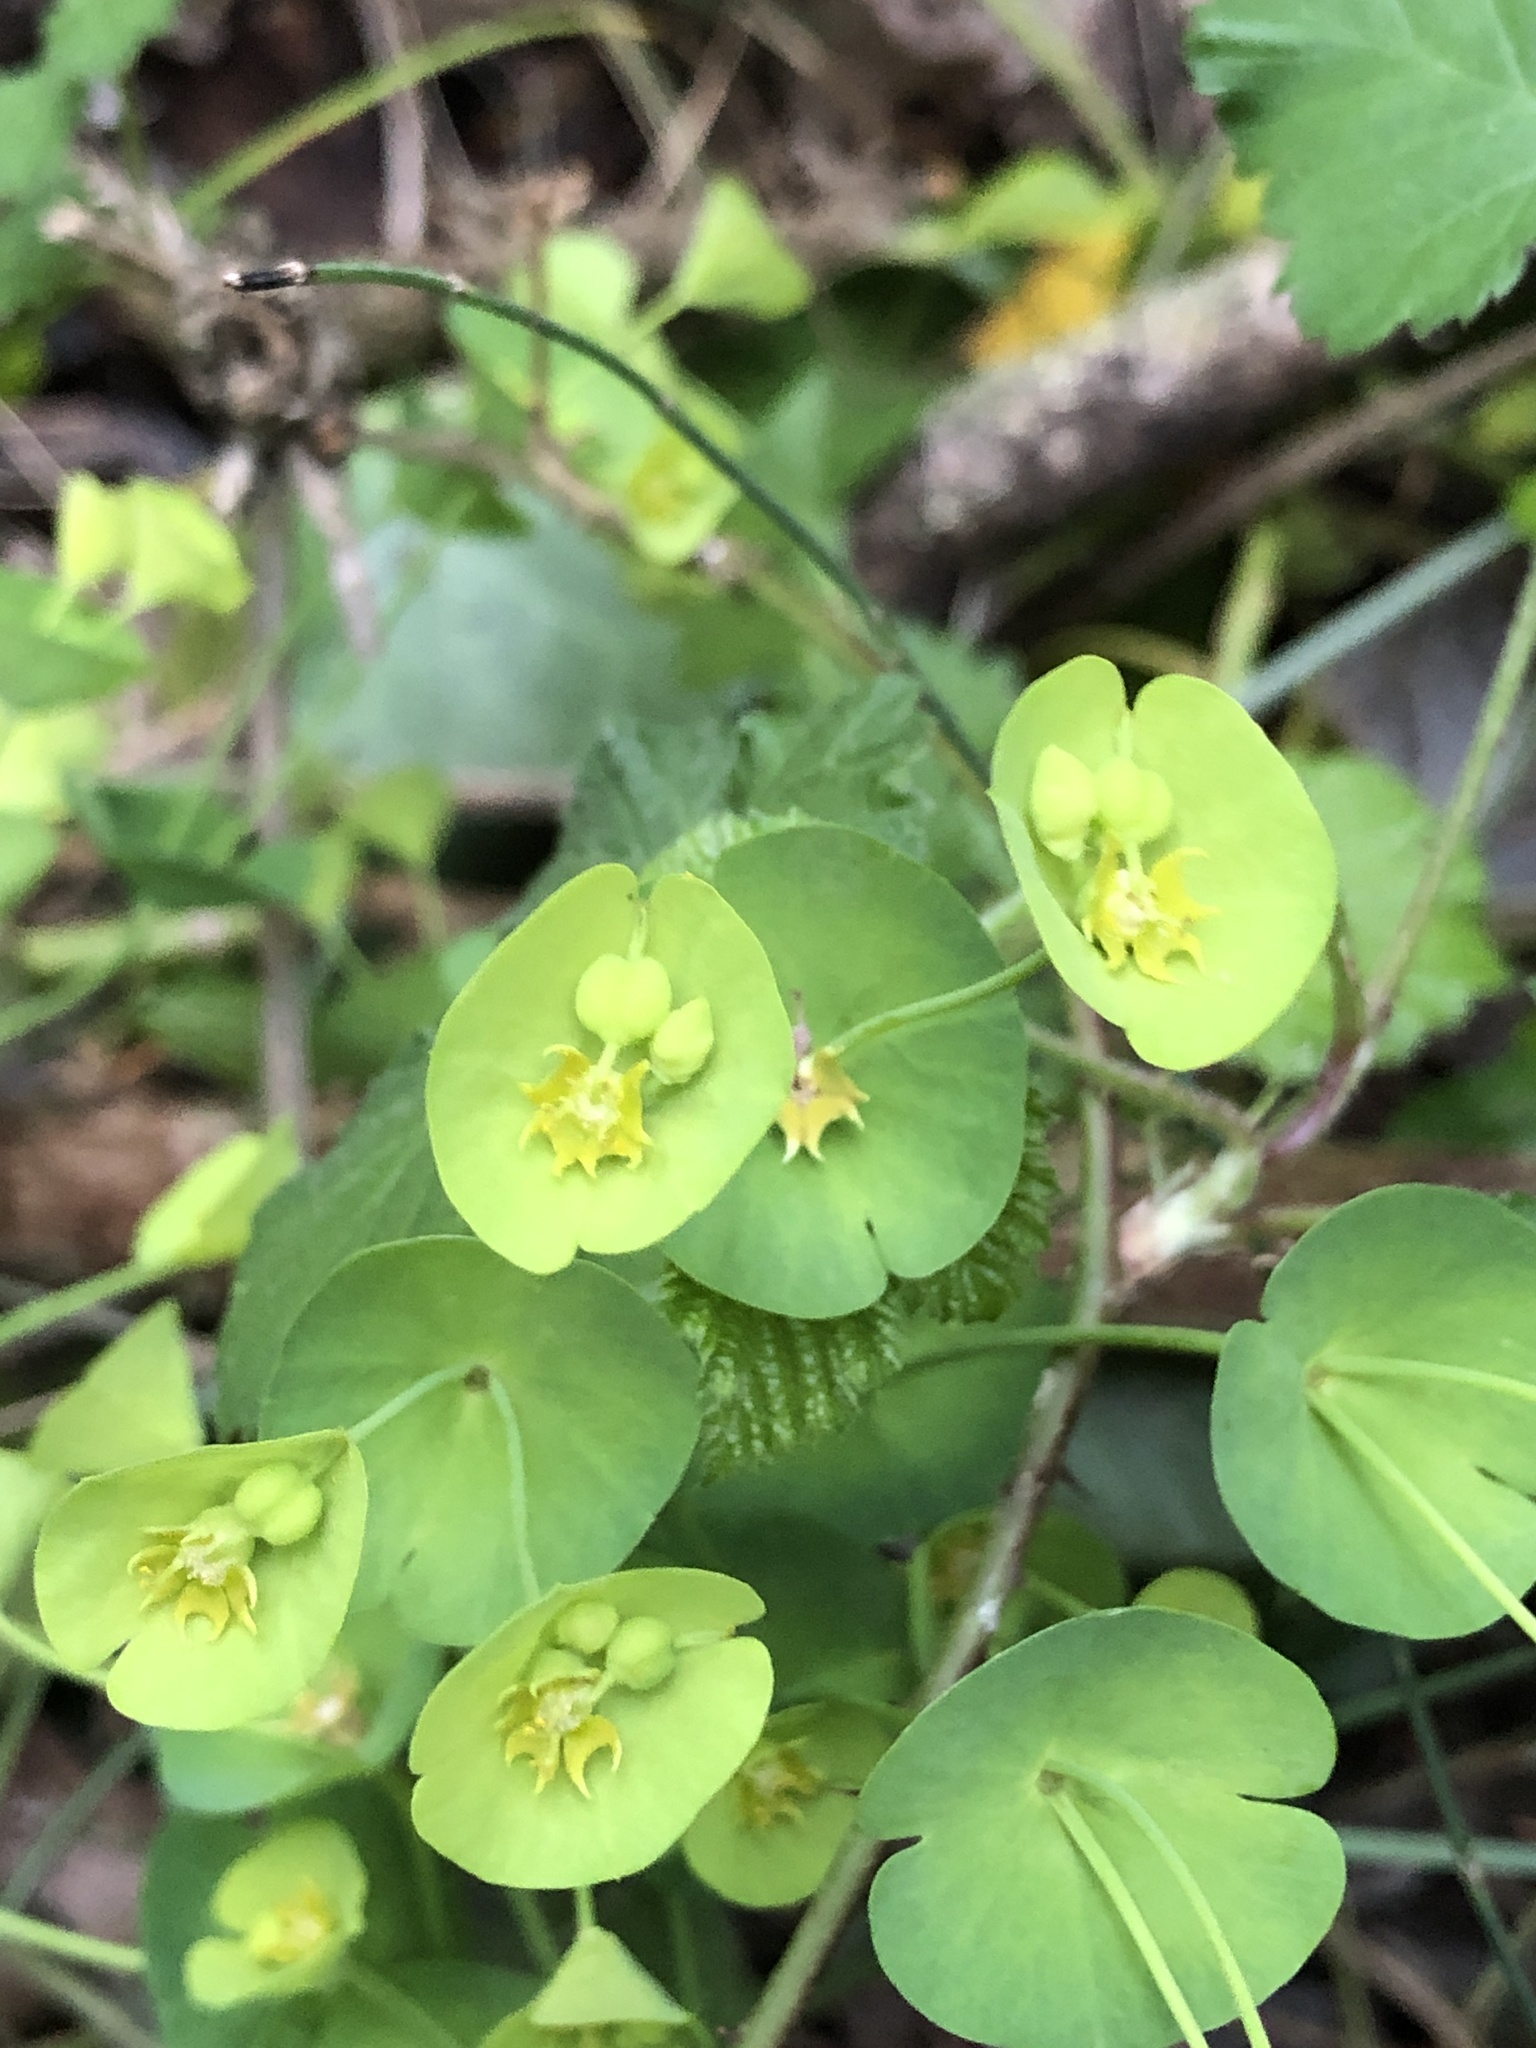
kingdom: Plantae
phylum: Tracheophyta
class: Magnoliopsida
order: Malpighiales
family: Euphorbiaceae
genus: Euphorbia
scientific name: Euphorbia amygdaloides
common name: Wood spurge
